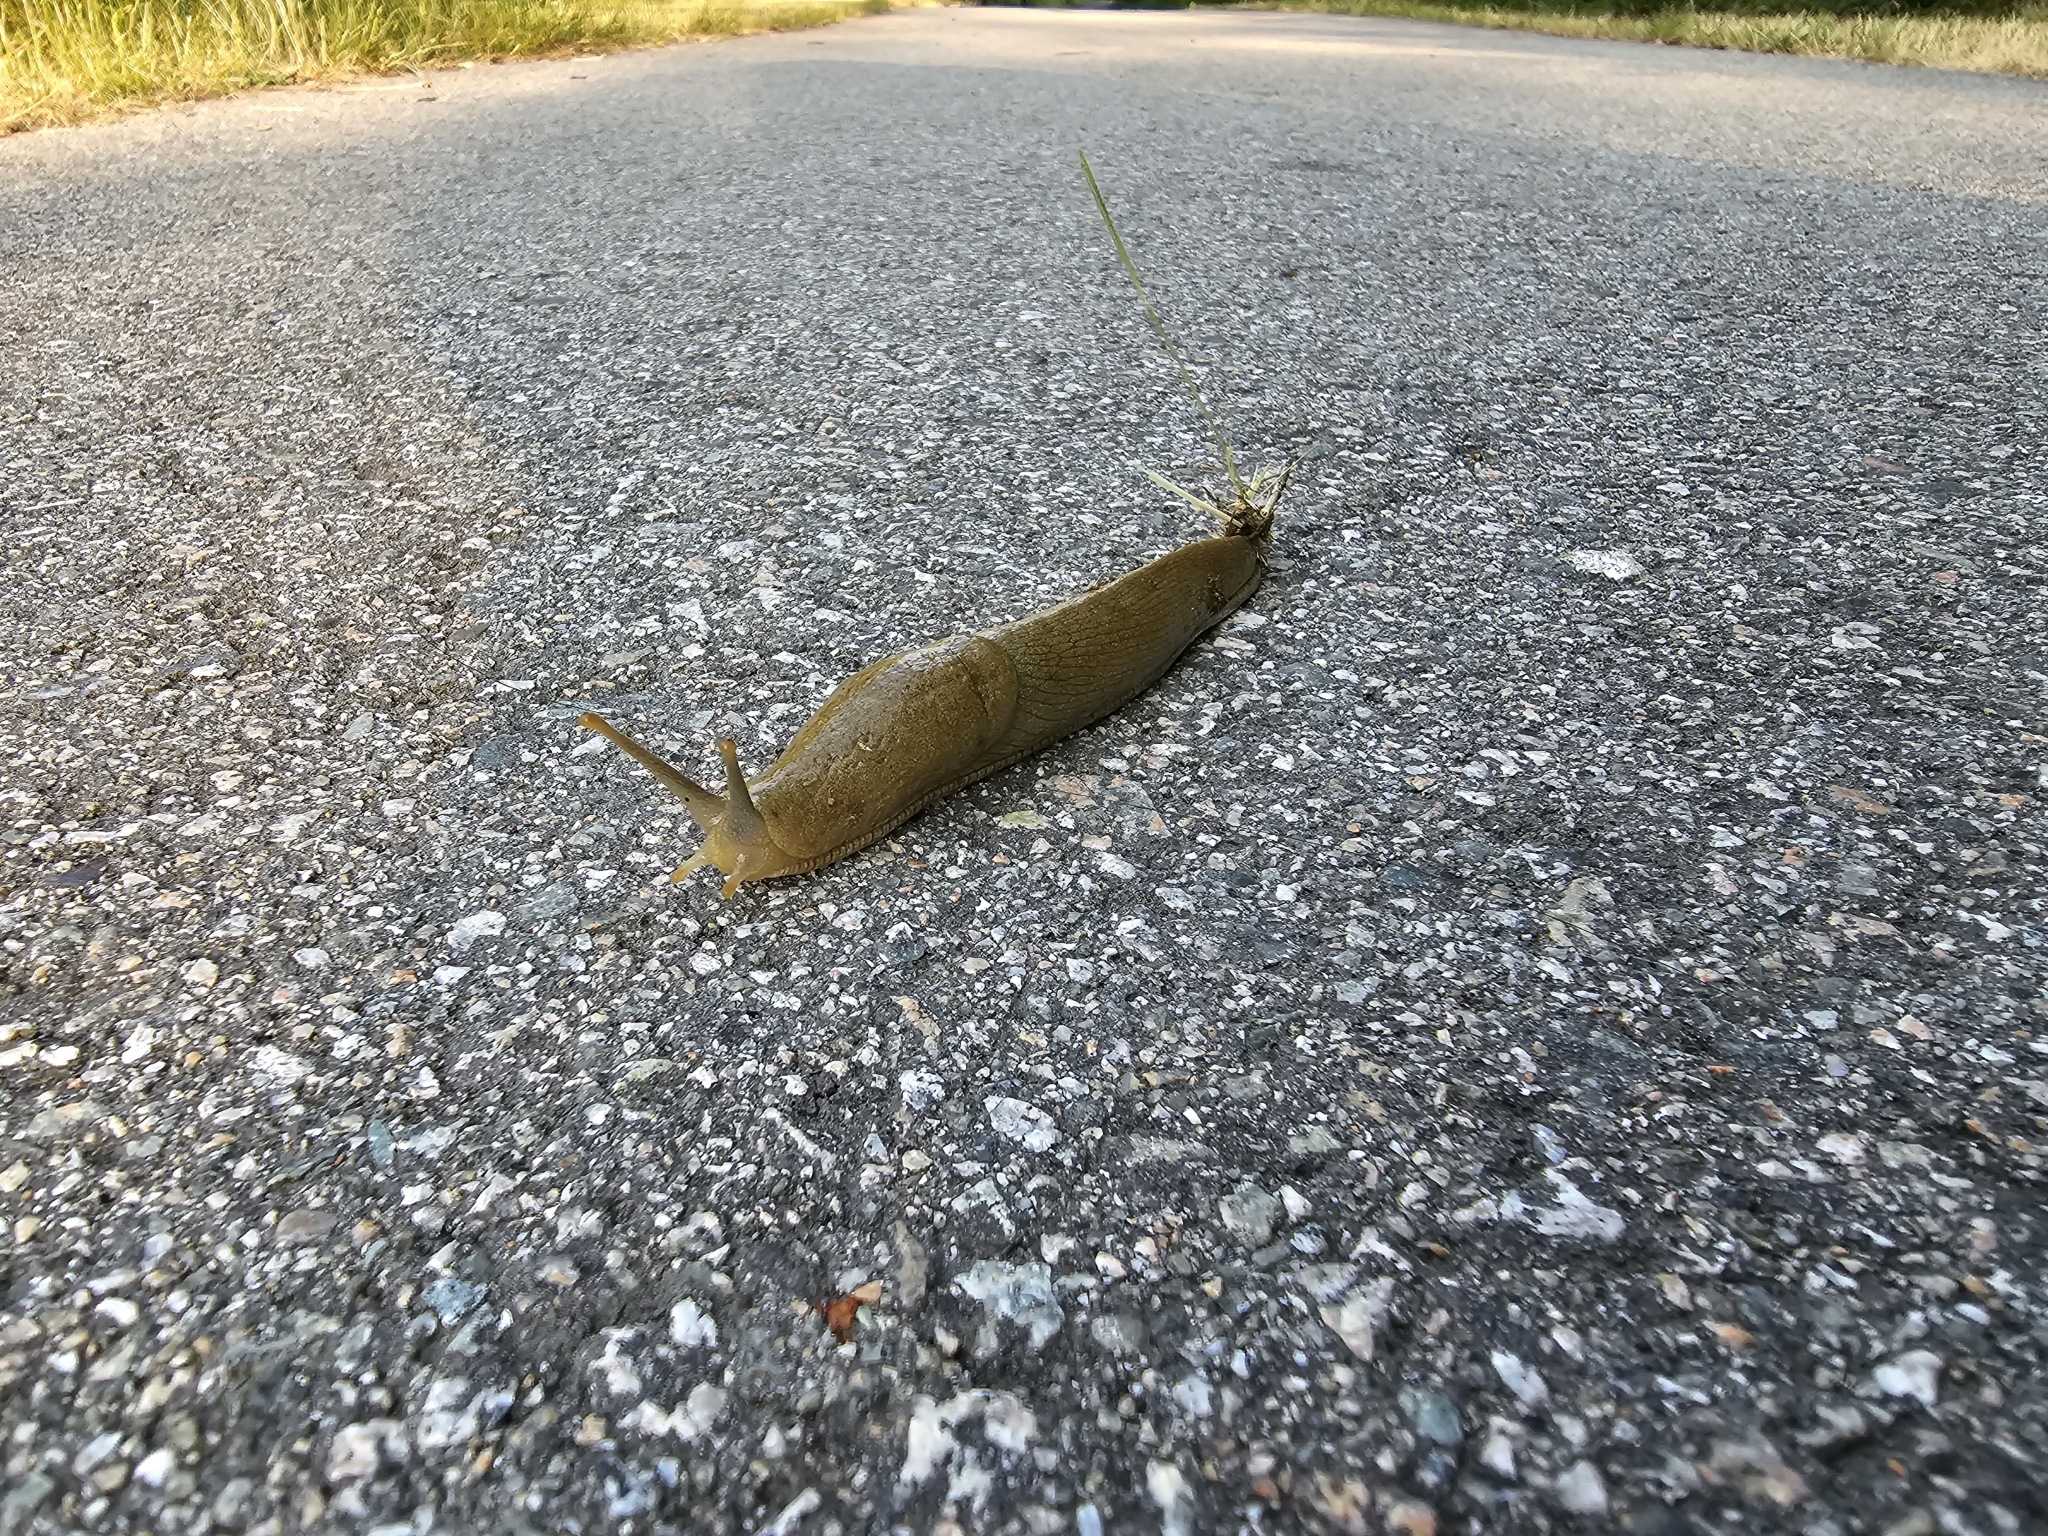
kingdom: Animalia
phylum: Mollusca
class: Gastropoda
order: Stylommatophora
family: Ariolimacidae
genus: Ariolimax
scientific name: Ariolimax columbianus
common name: Pacific banana slug
